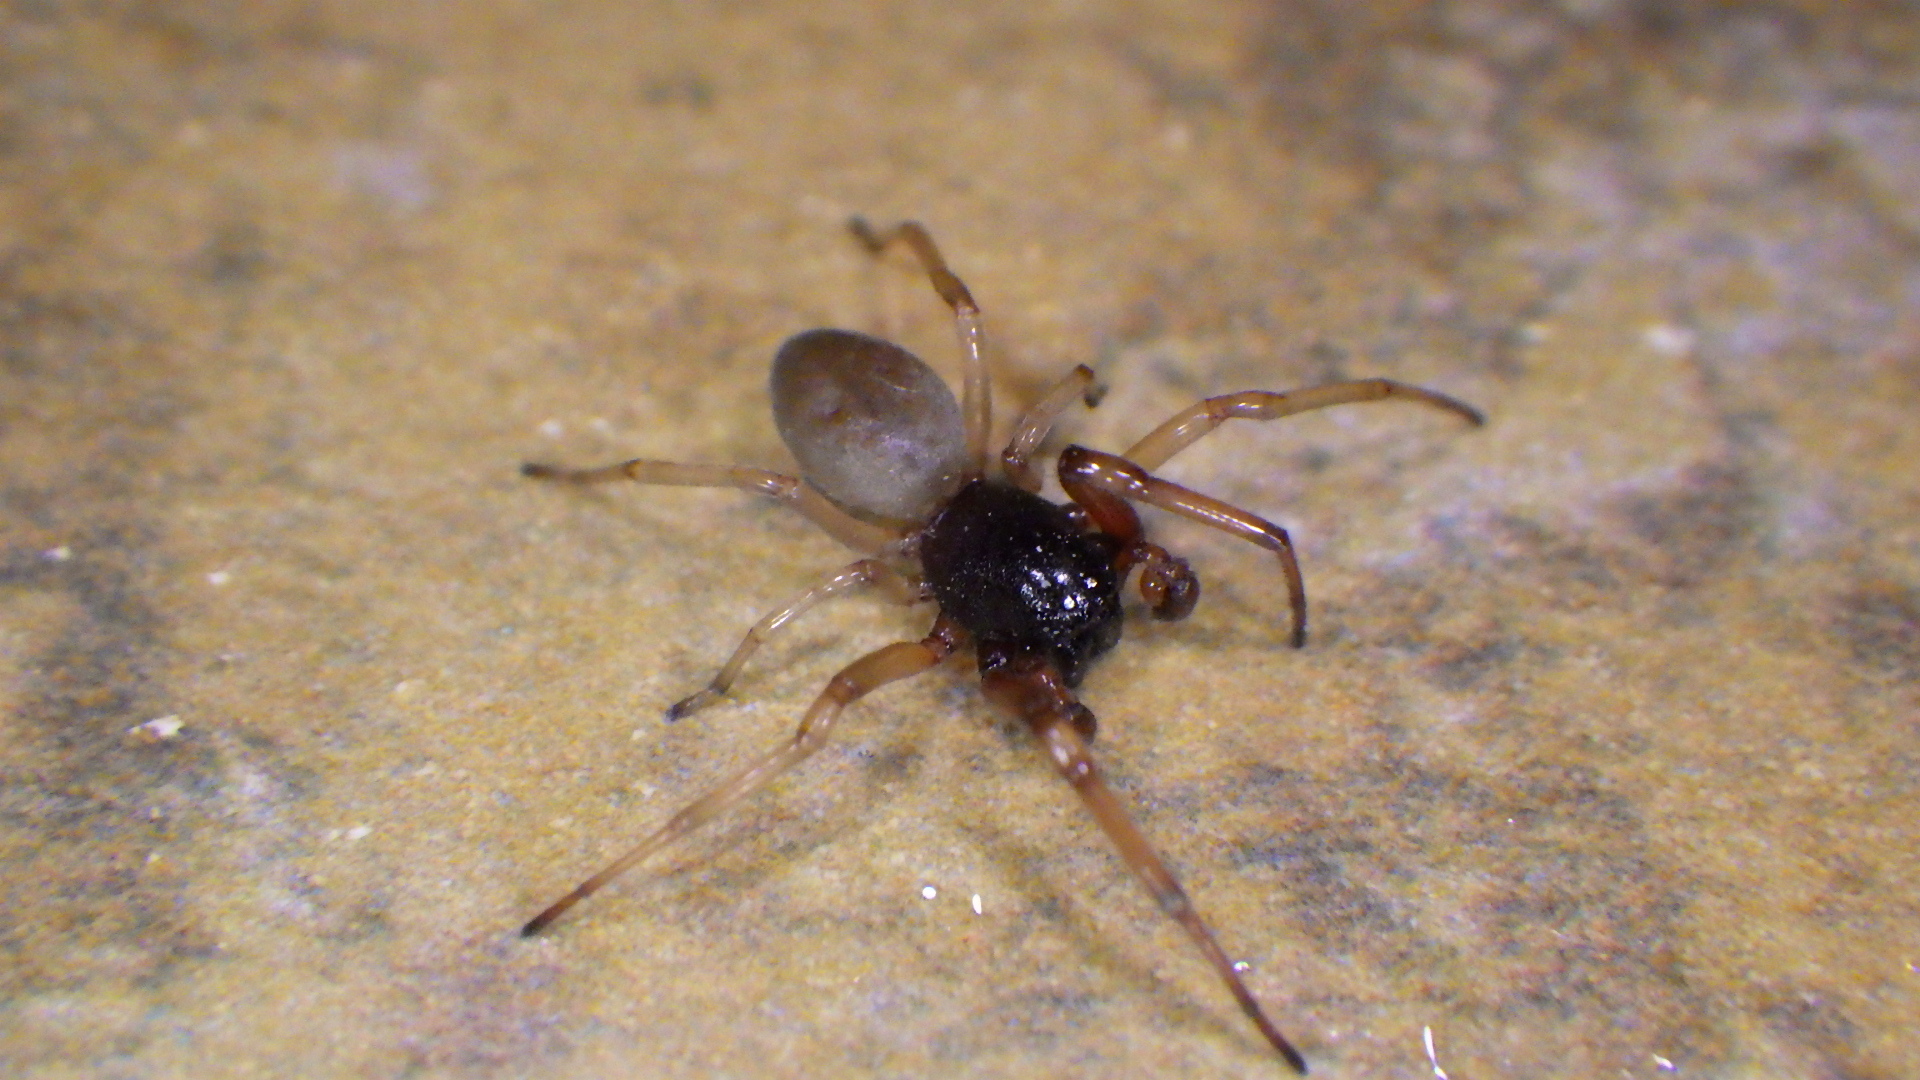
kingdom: Animalia
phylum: Arthropoda
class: Arachnida
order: Araneae
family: Trachelidae
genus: Trachelas
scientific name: Trachelas tranquillus
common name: Broad-faced sac spider
